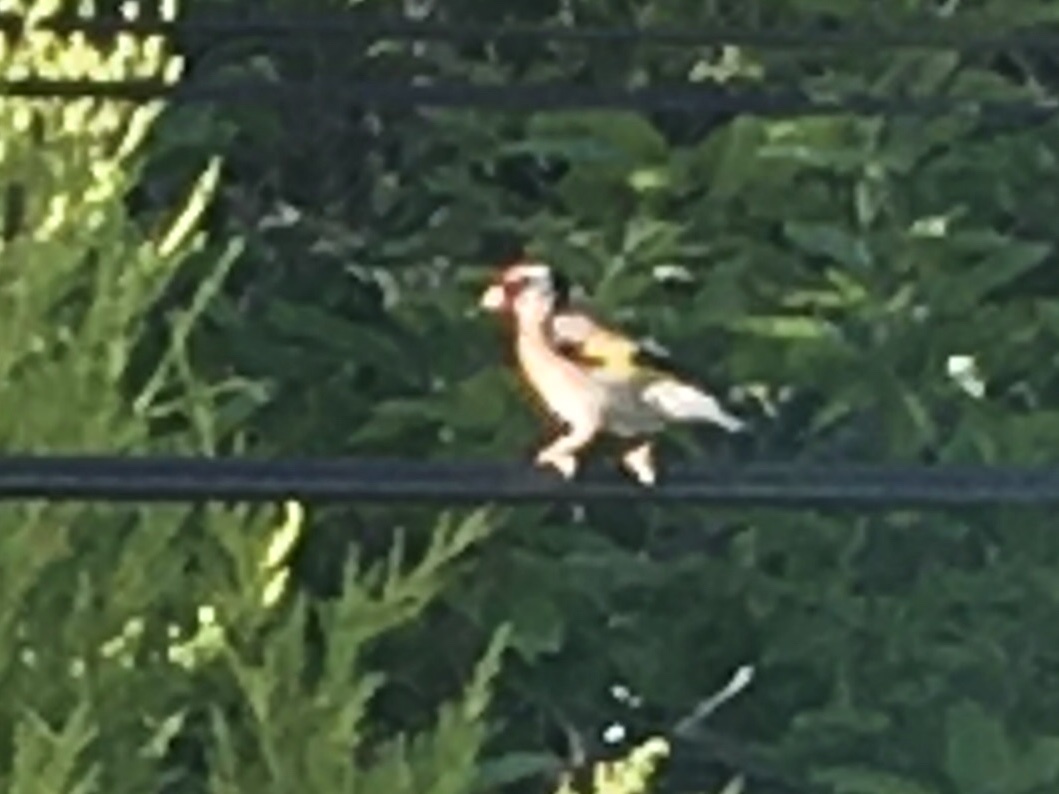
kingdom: Animalia
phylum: Chordata
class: Aves
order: Passeriformes
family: Fringillidae
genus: Carduelis
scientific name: Carduelis carduelis
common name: European goldfinch
